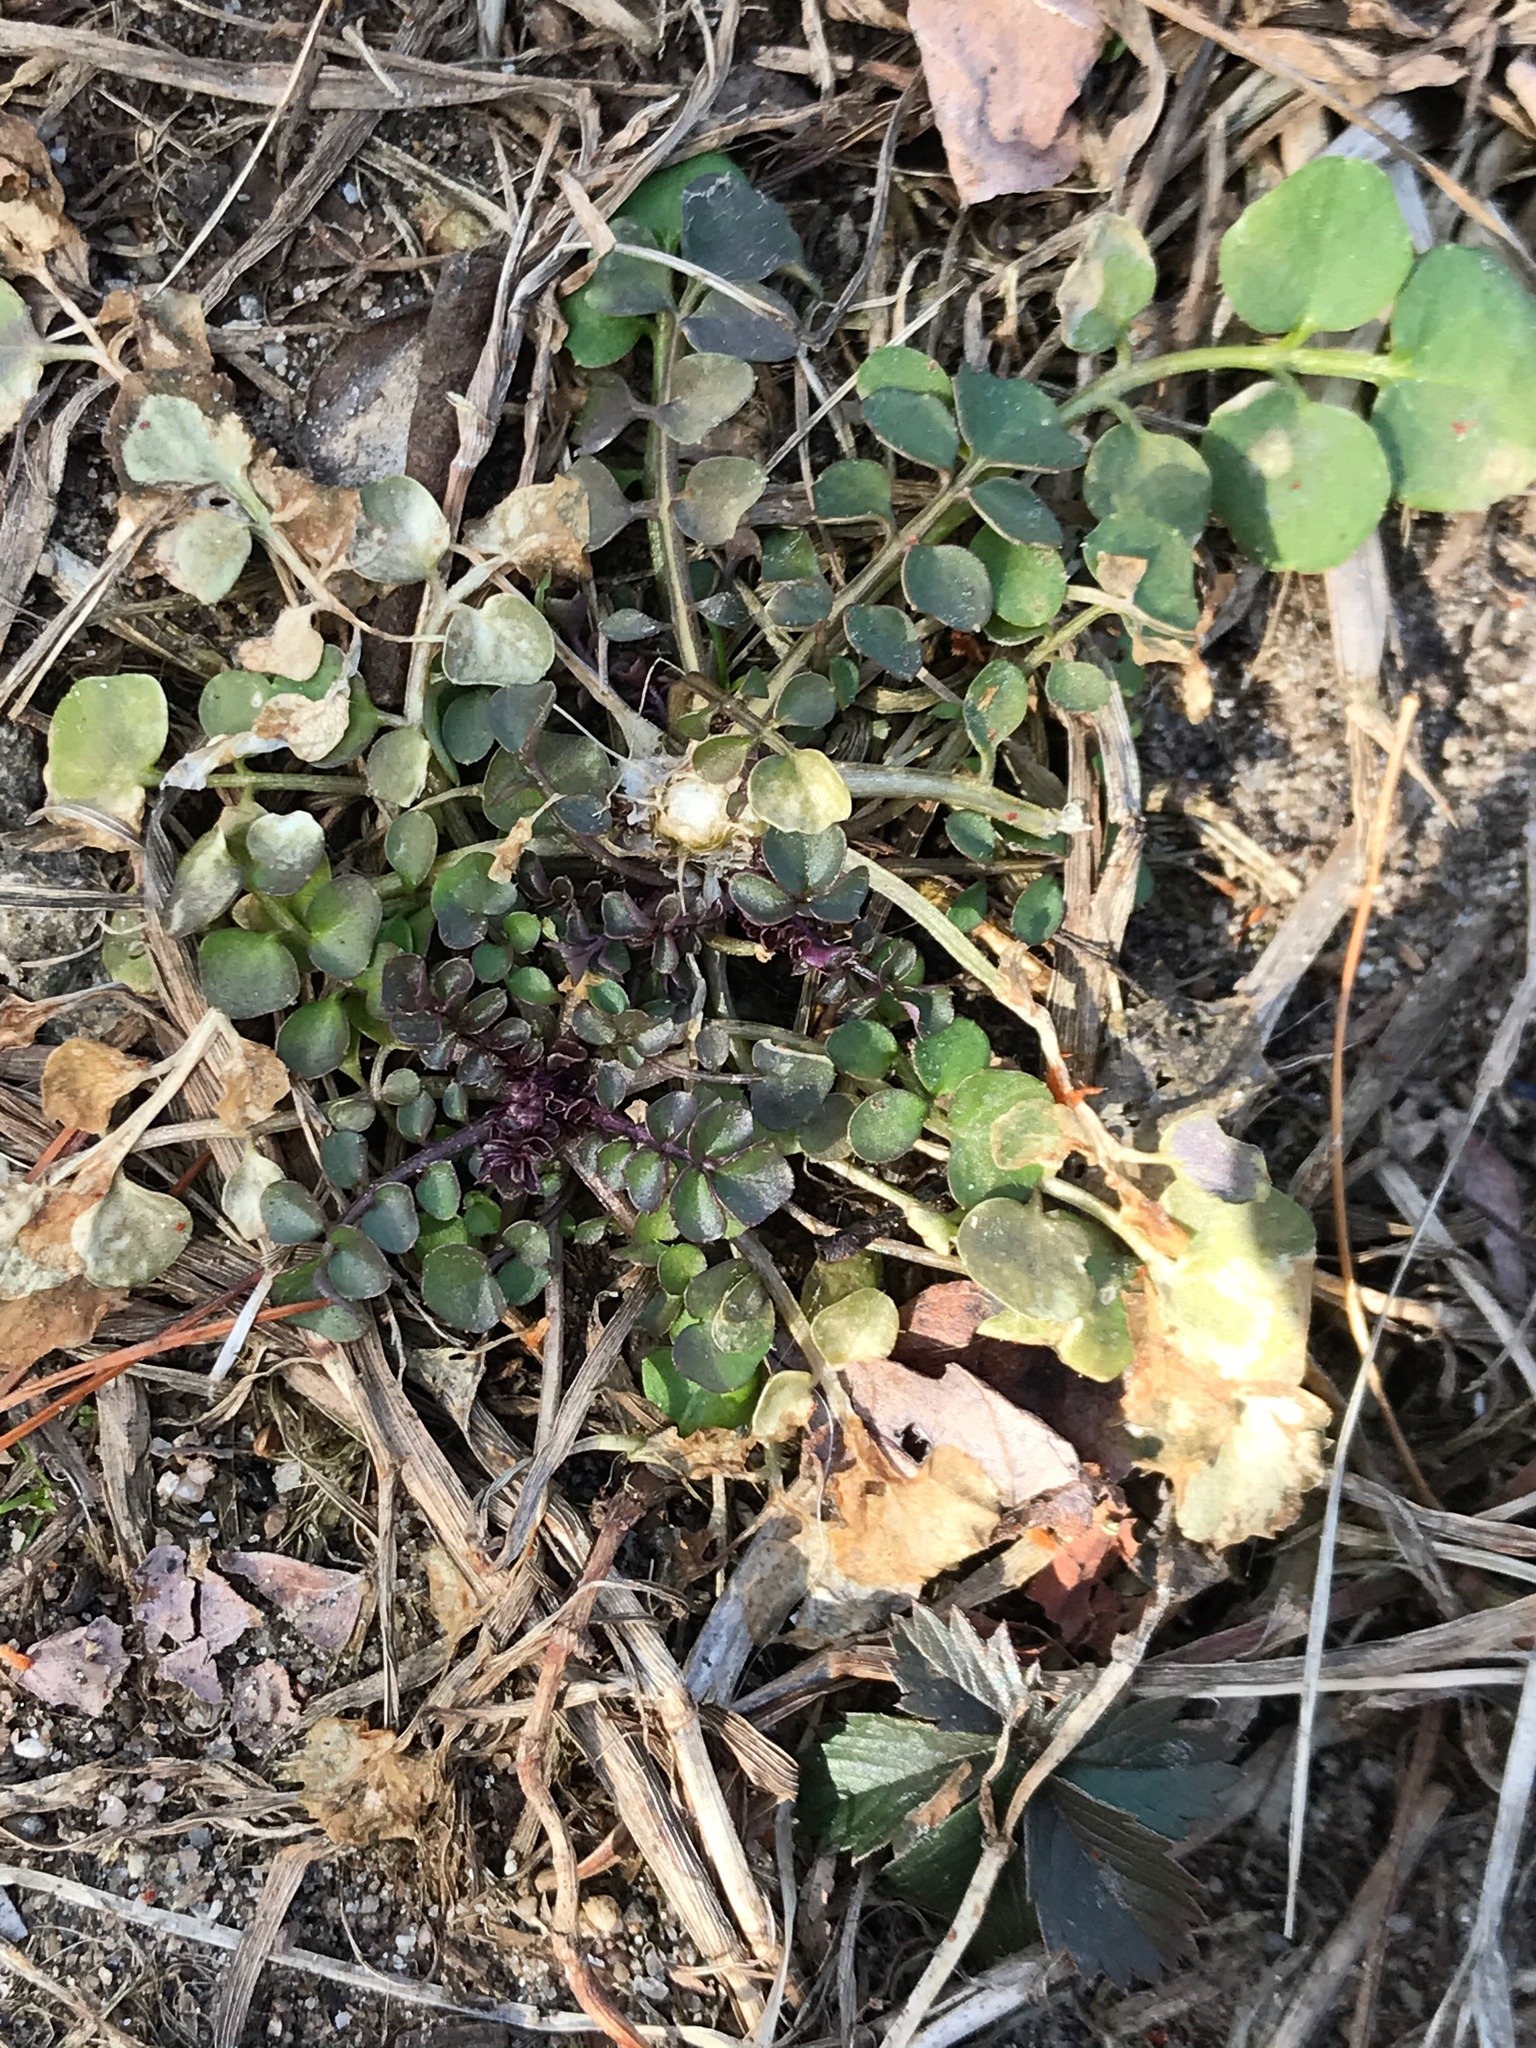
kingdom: Plantae
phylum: Tracheophyta
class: Magnoliopsida
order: Brassicales
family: Brassicaceae
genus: Cardamine
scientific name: Cardamine hirsuta
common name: Hairy bittercress
